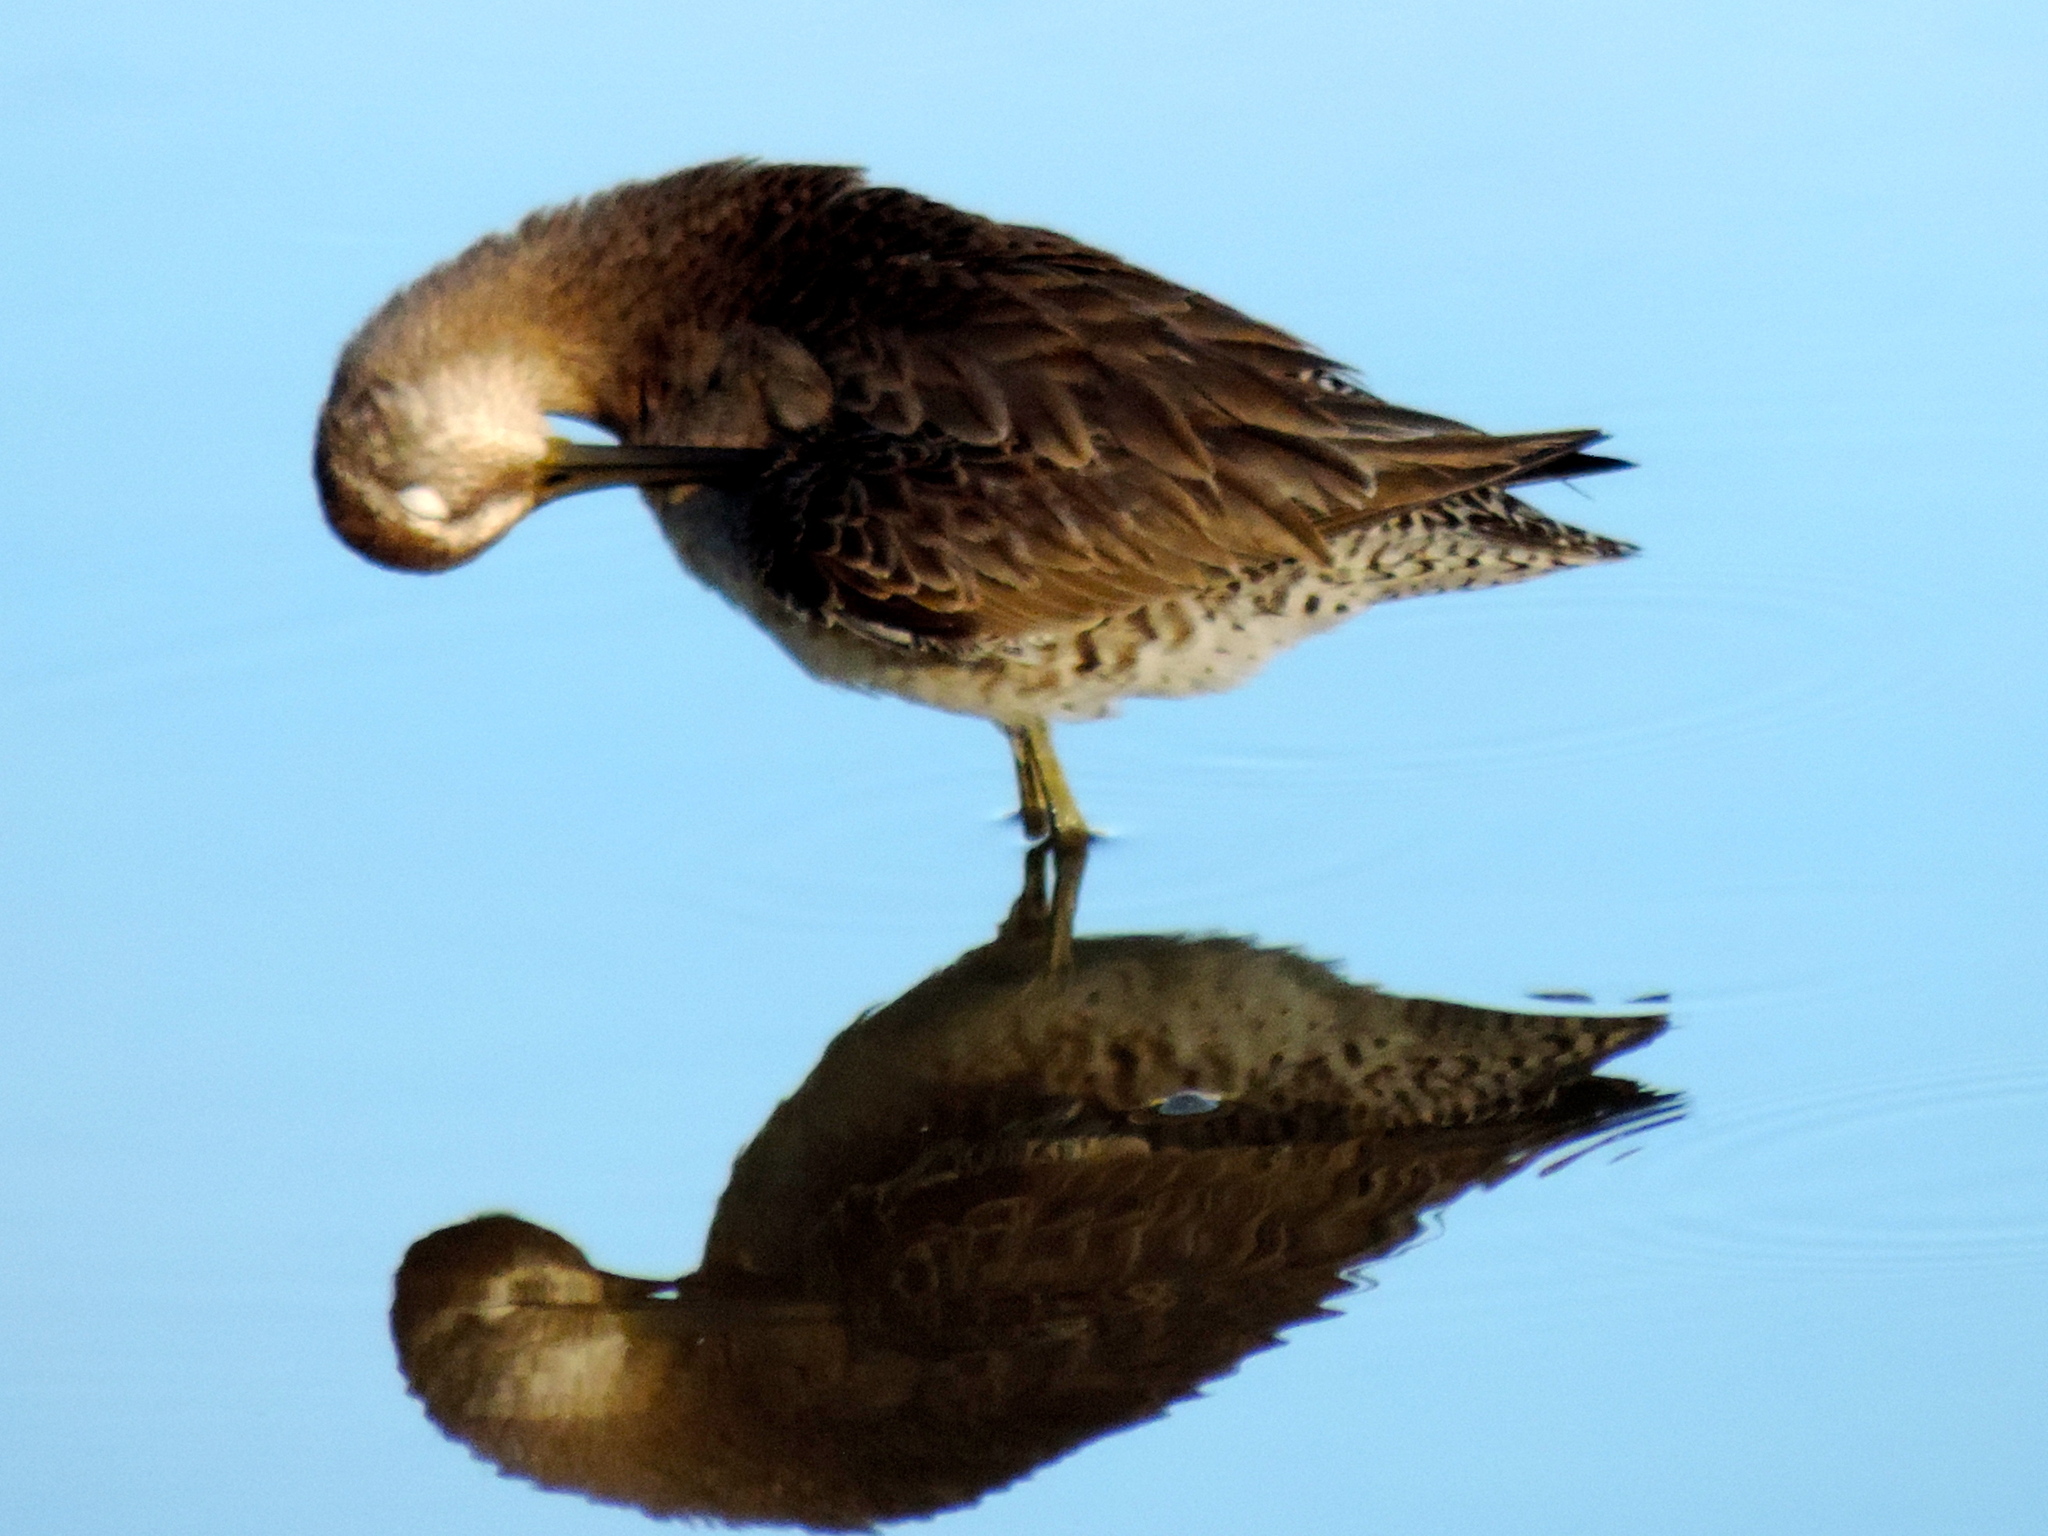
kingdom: Animalia
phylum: Chordata
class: Aves
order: Charadriiformes
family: Scolopacidae
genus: Limnodromus
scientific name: Limnodromus
